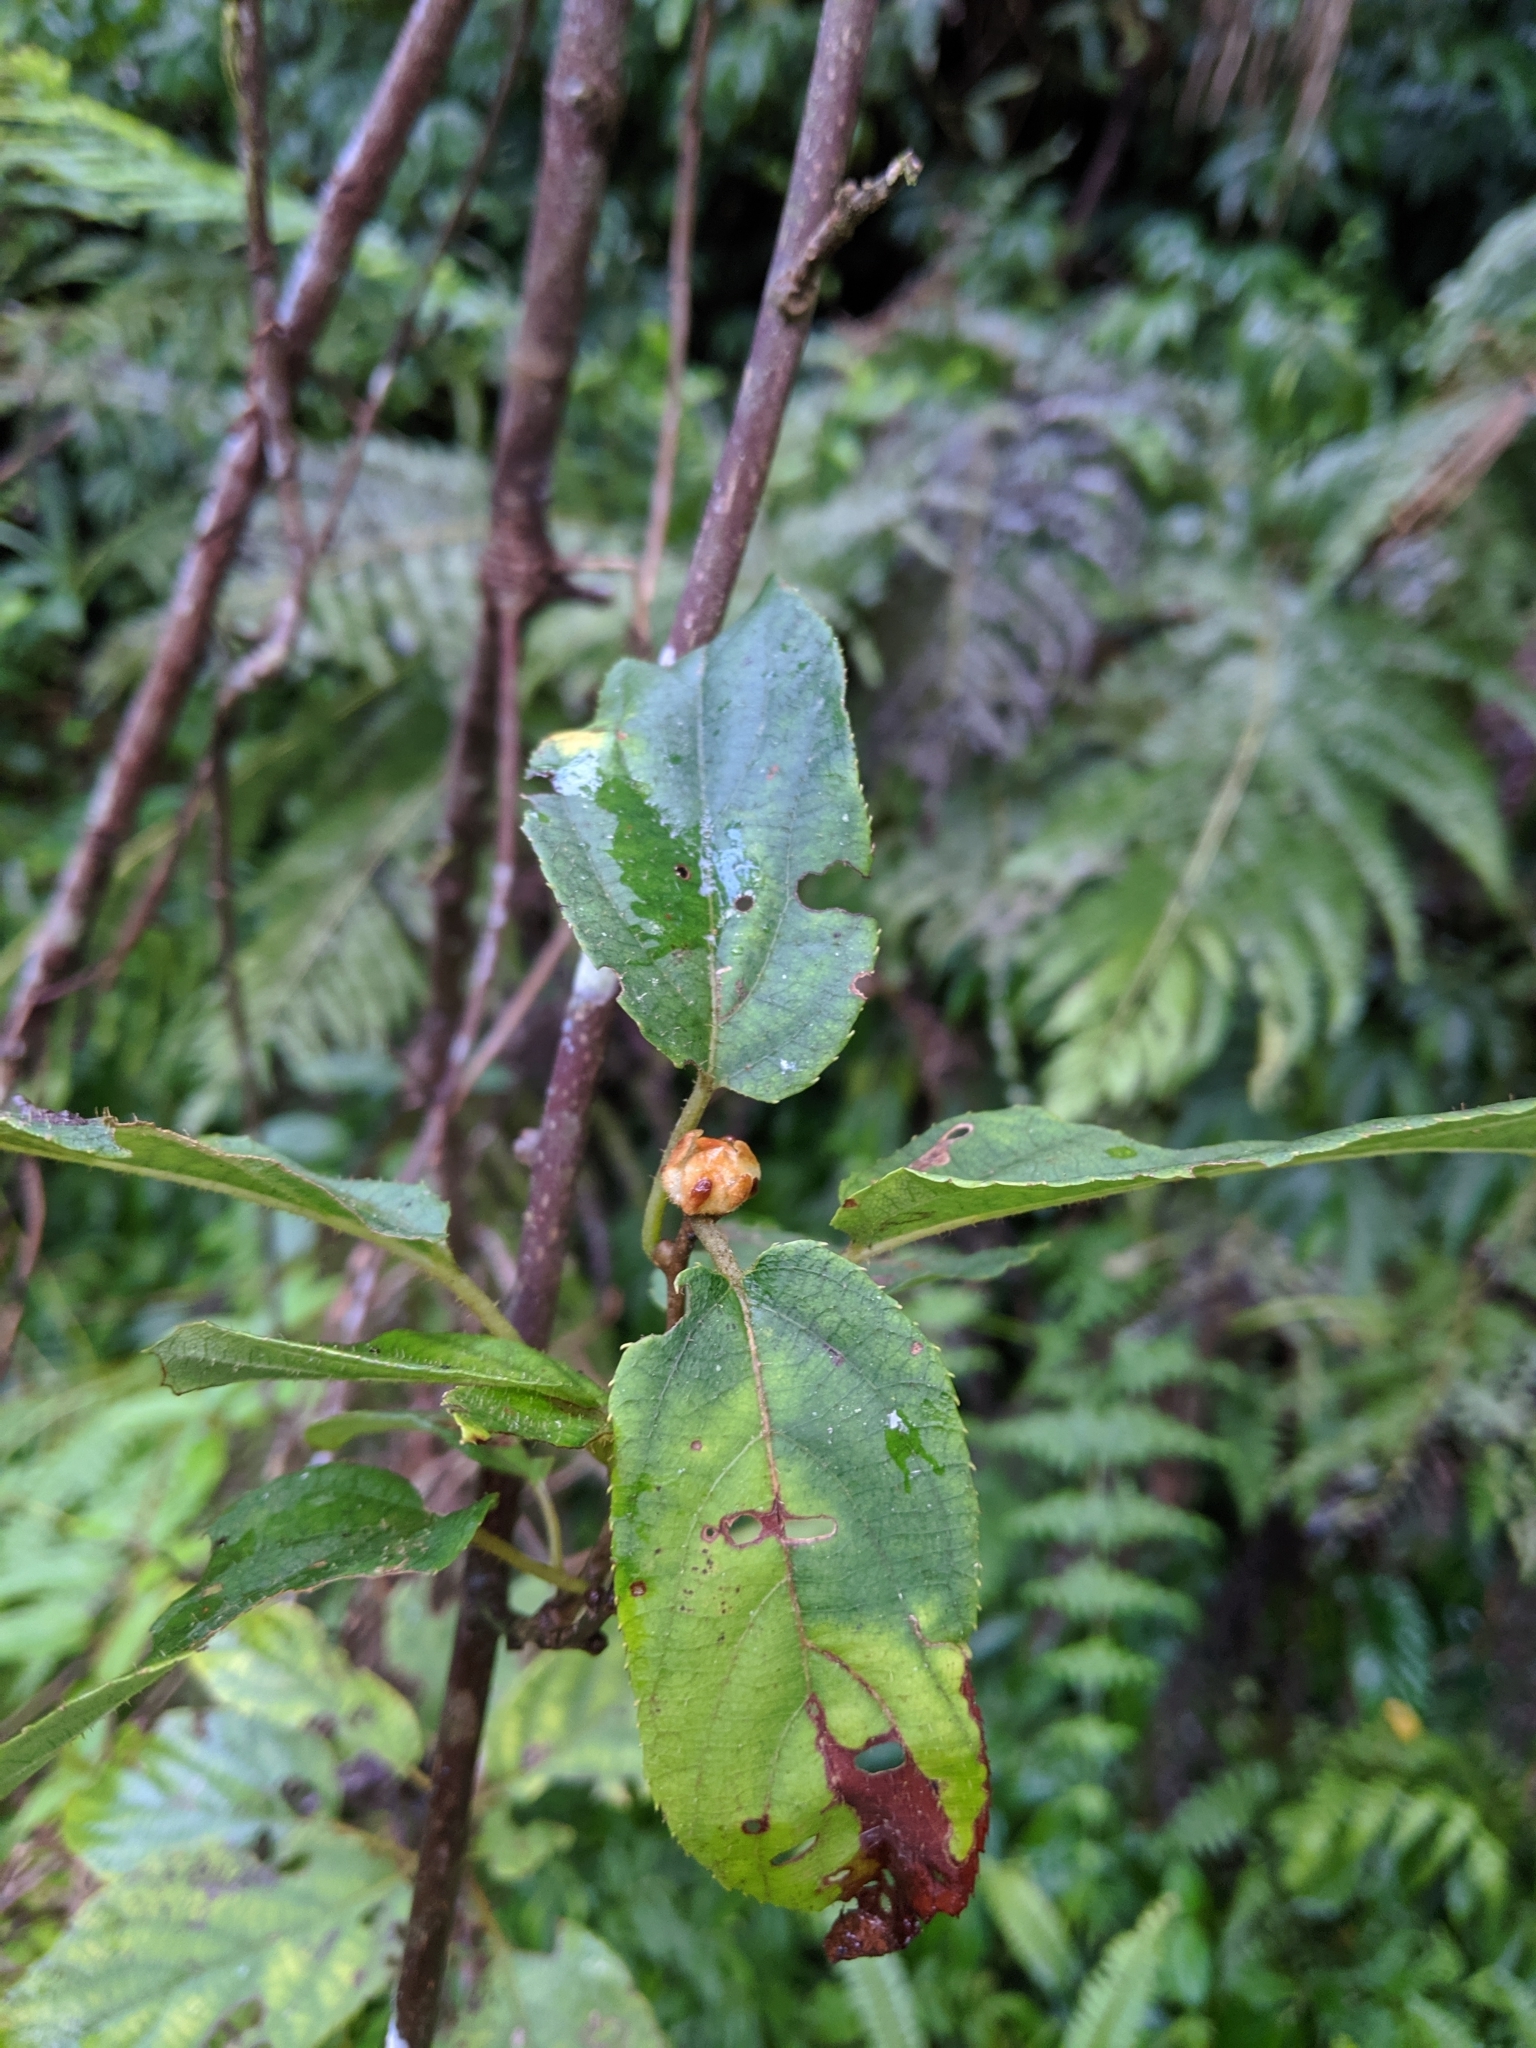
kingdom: Plantae
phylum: Tracheophyta
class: Magnoliopsida
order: Ericales
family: Actinidiaceae
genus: Actinidia
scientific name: Actinidia rufa
